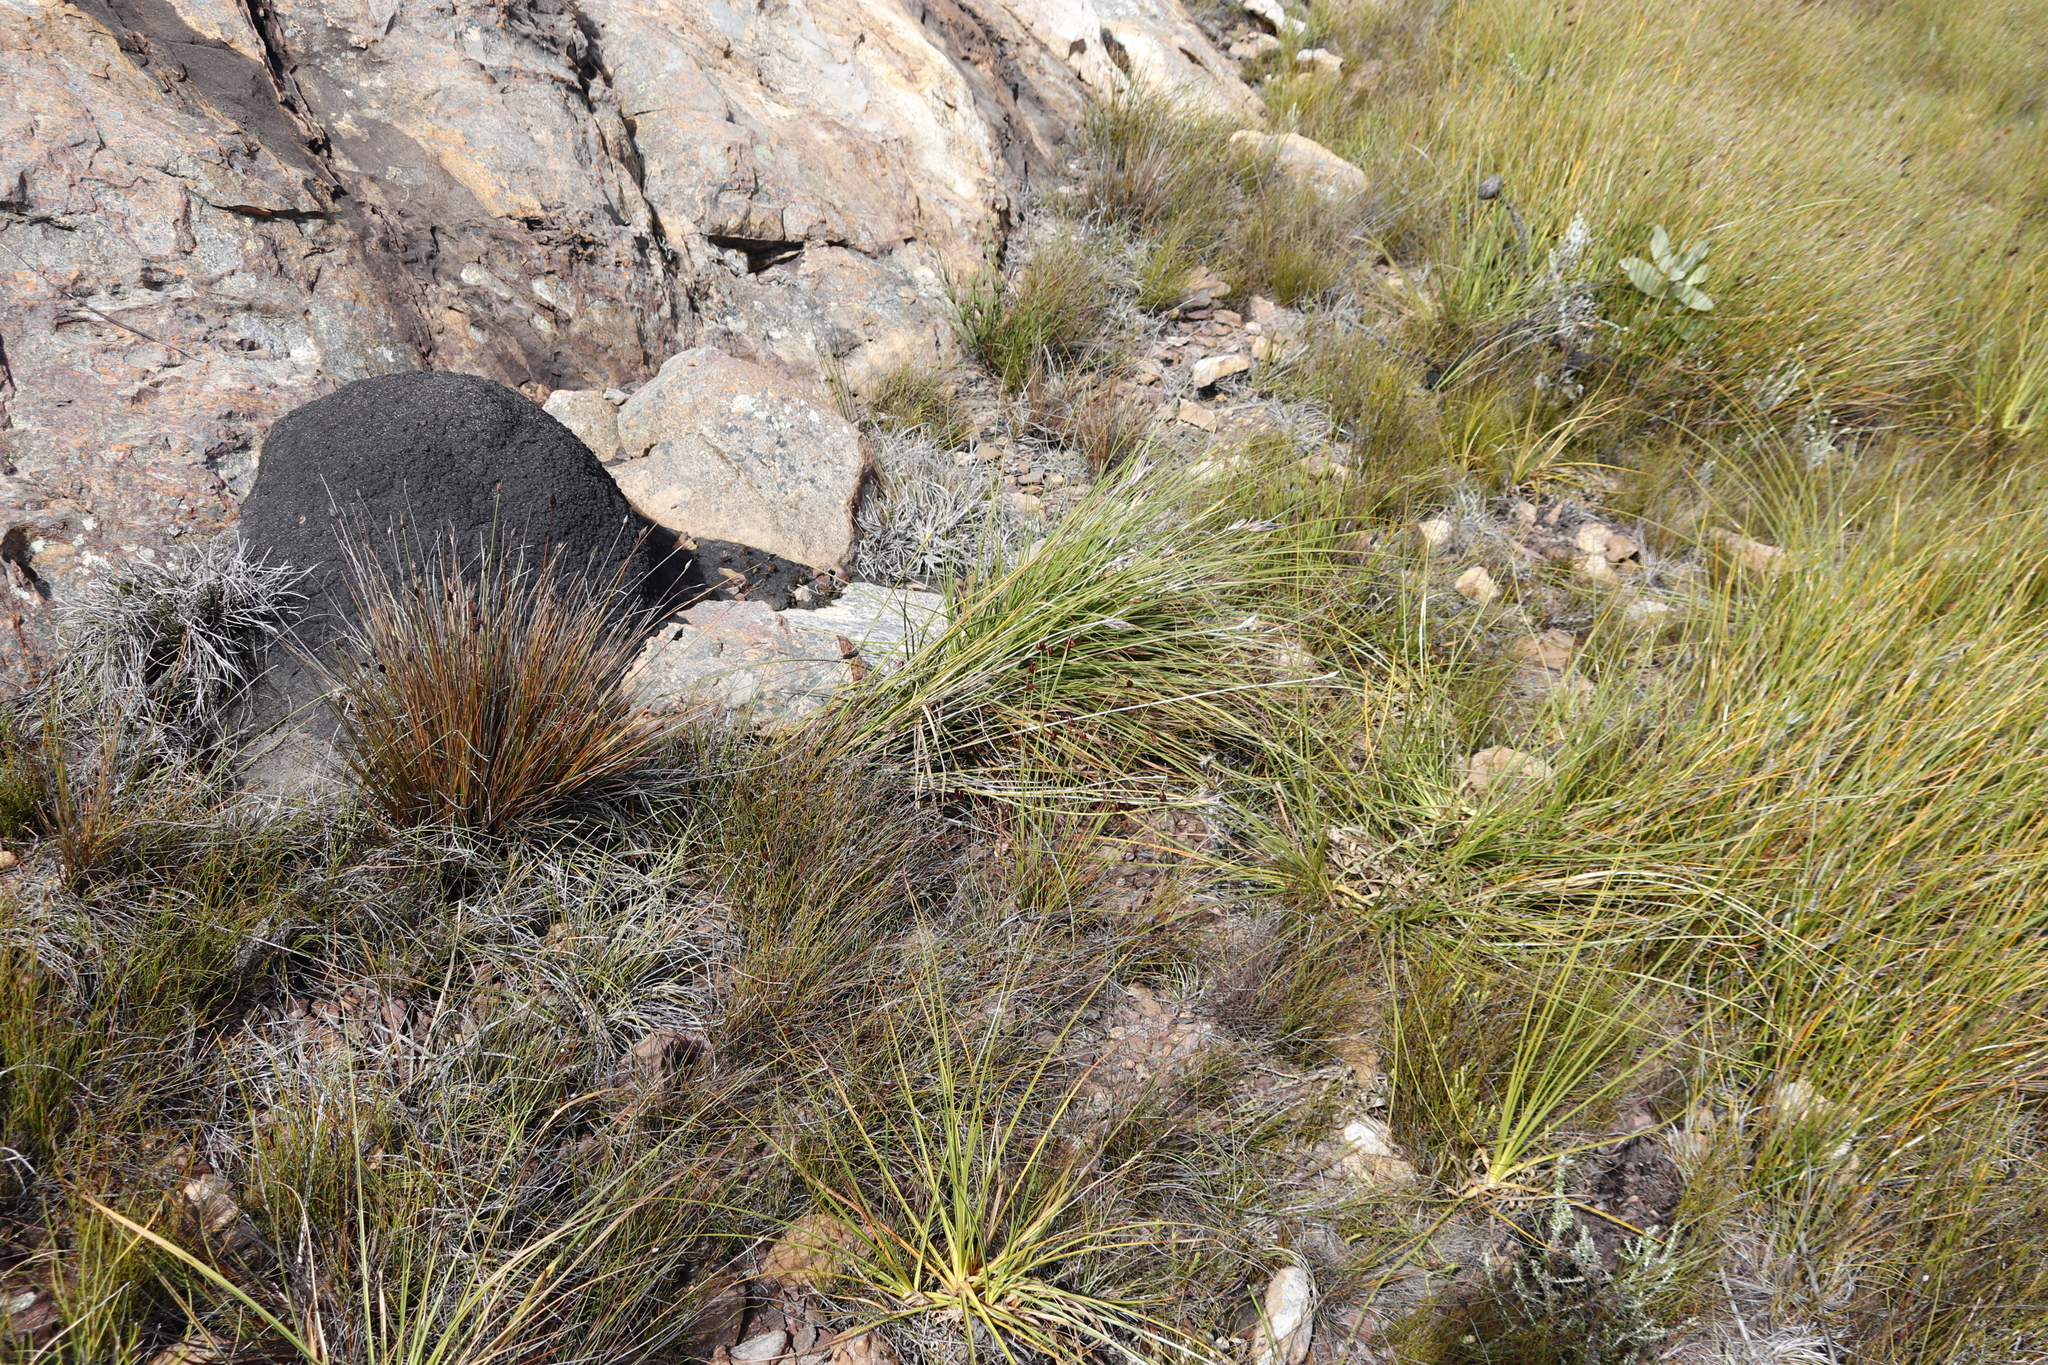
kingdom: Plantae
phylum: Tracheophyta
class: Liliopsida
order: Asparagales
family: Iridaceae
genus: Bobartia
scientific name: Bobartia filiformis
